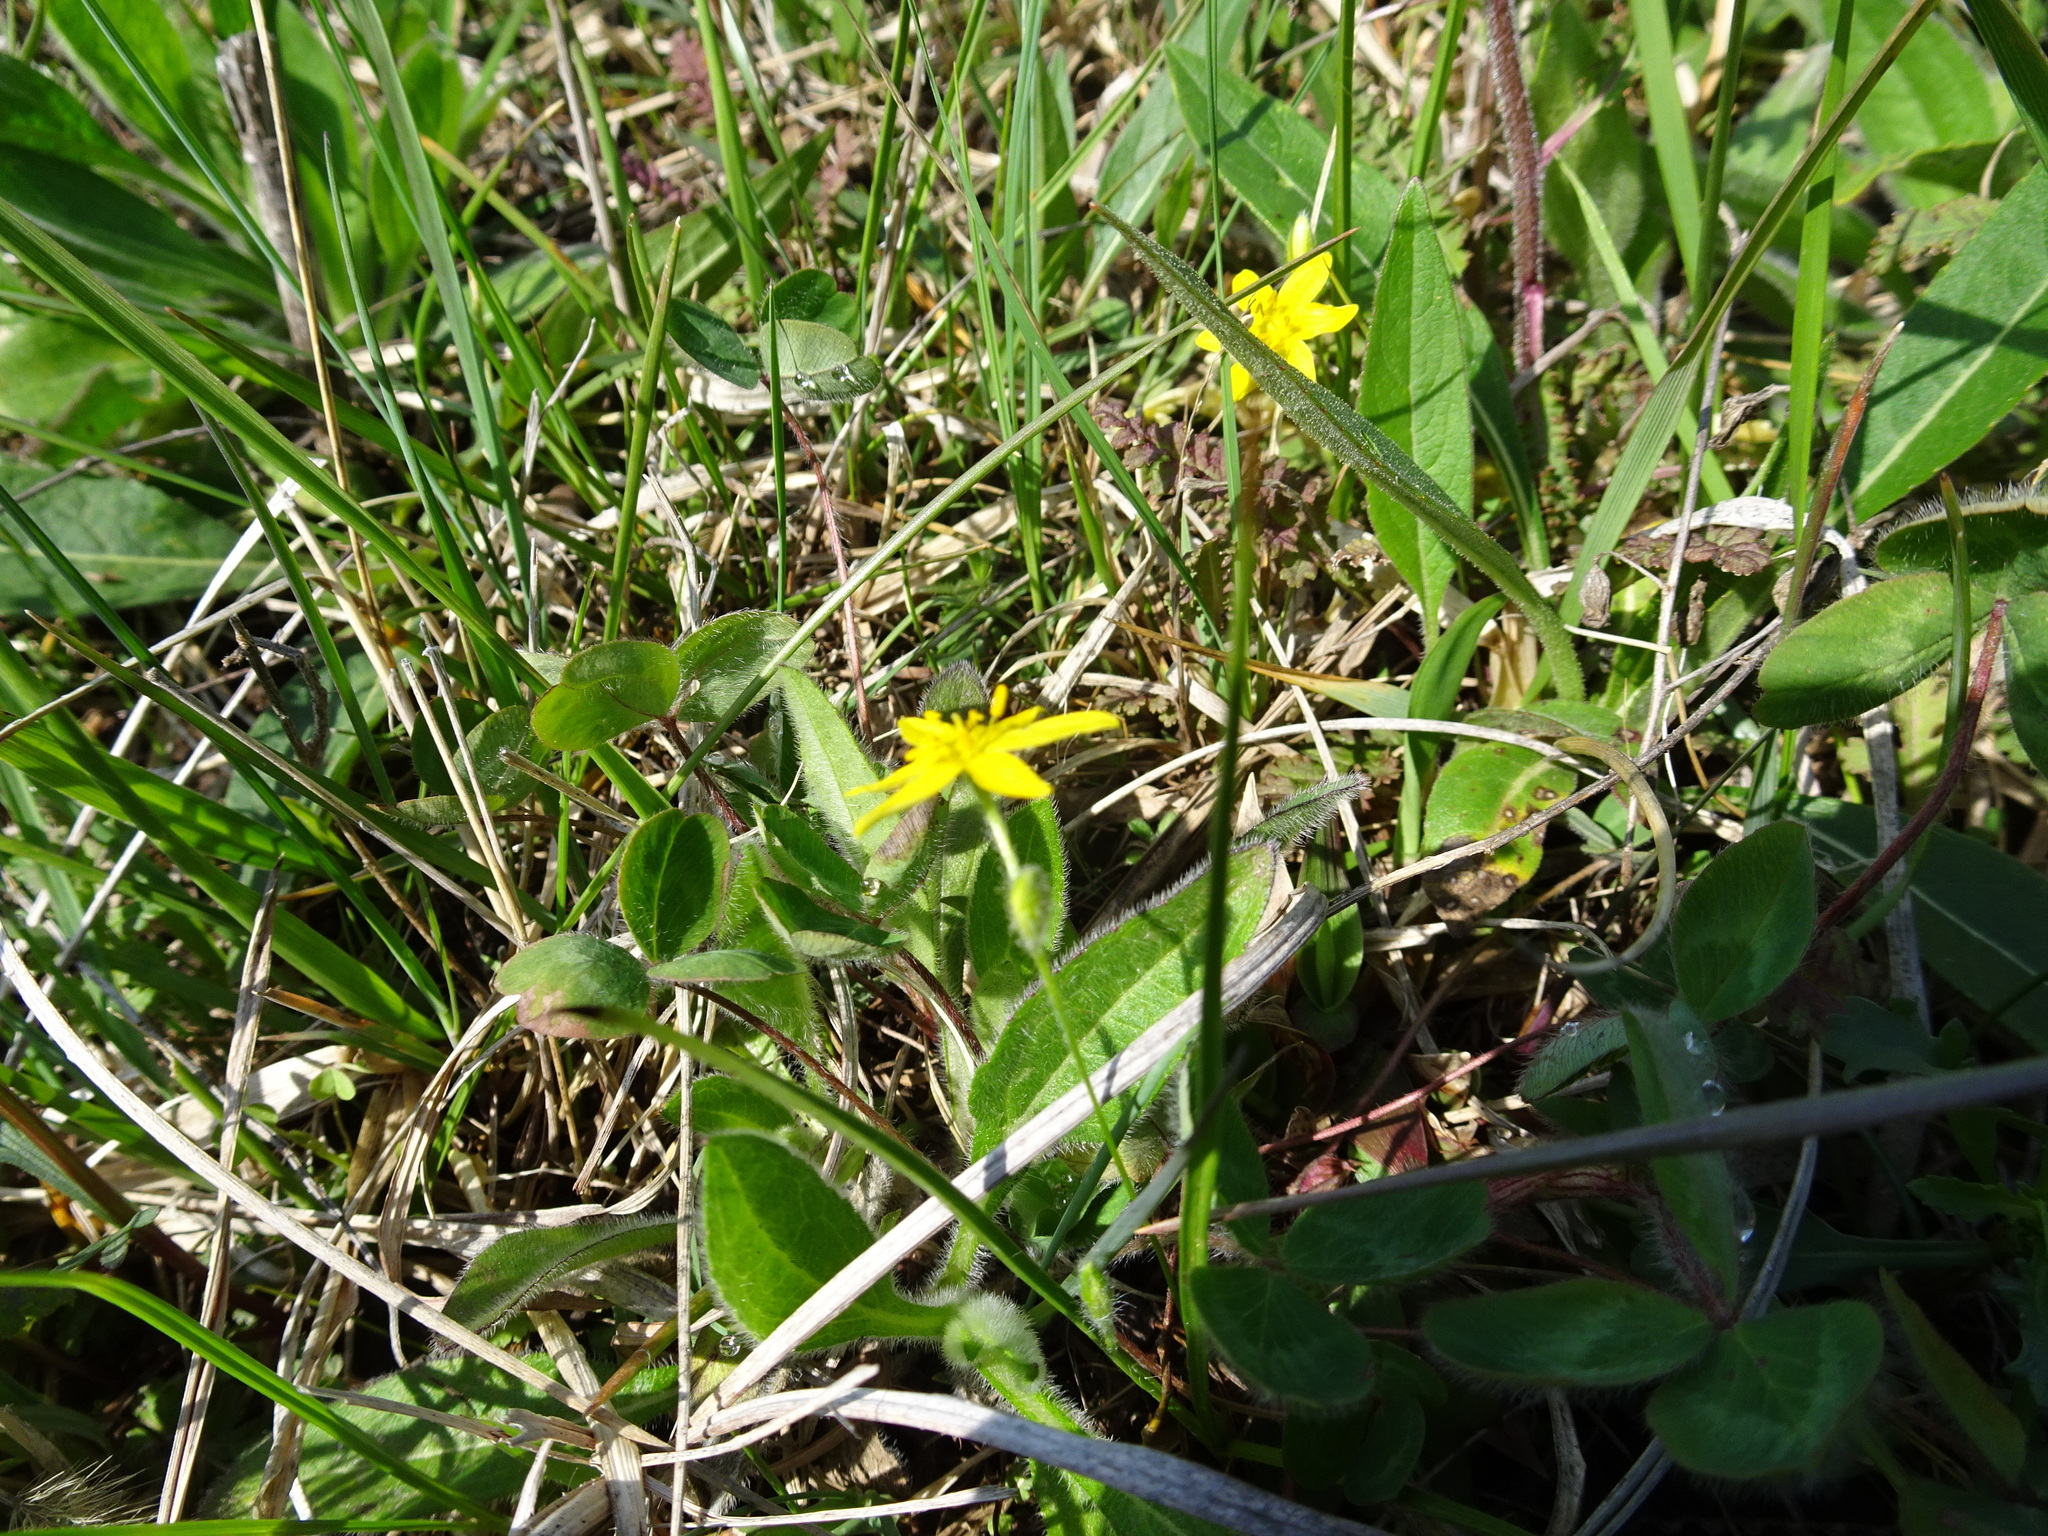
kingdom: Plantae
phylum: Tracheophyta
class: Liliopsida
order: Asparagales
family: Hypoxidaceae
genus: Hypoxis
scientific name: Hypoxis hirsuta
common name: Common goldstar
